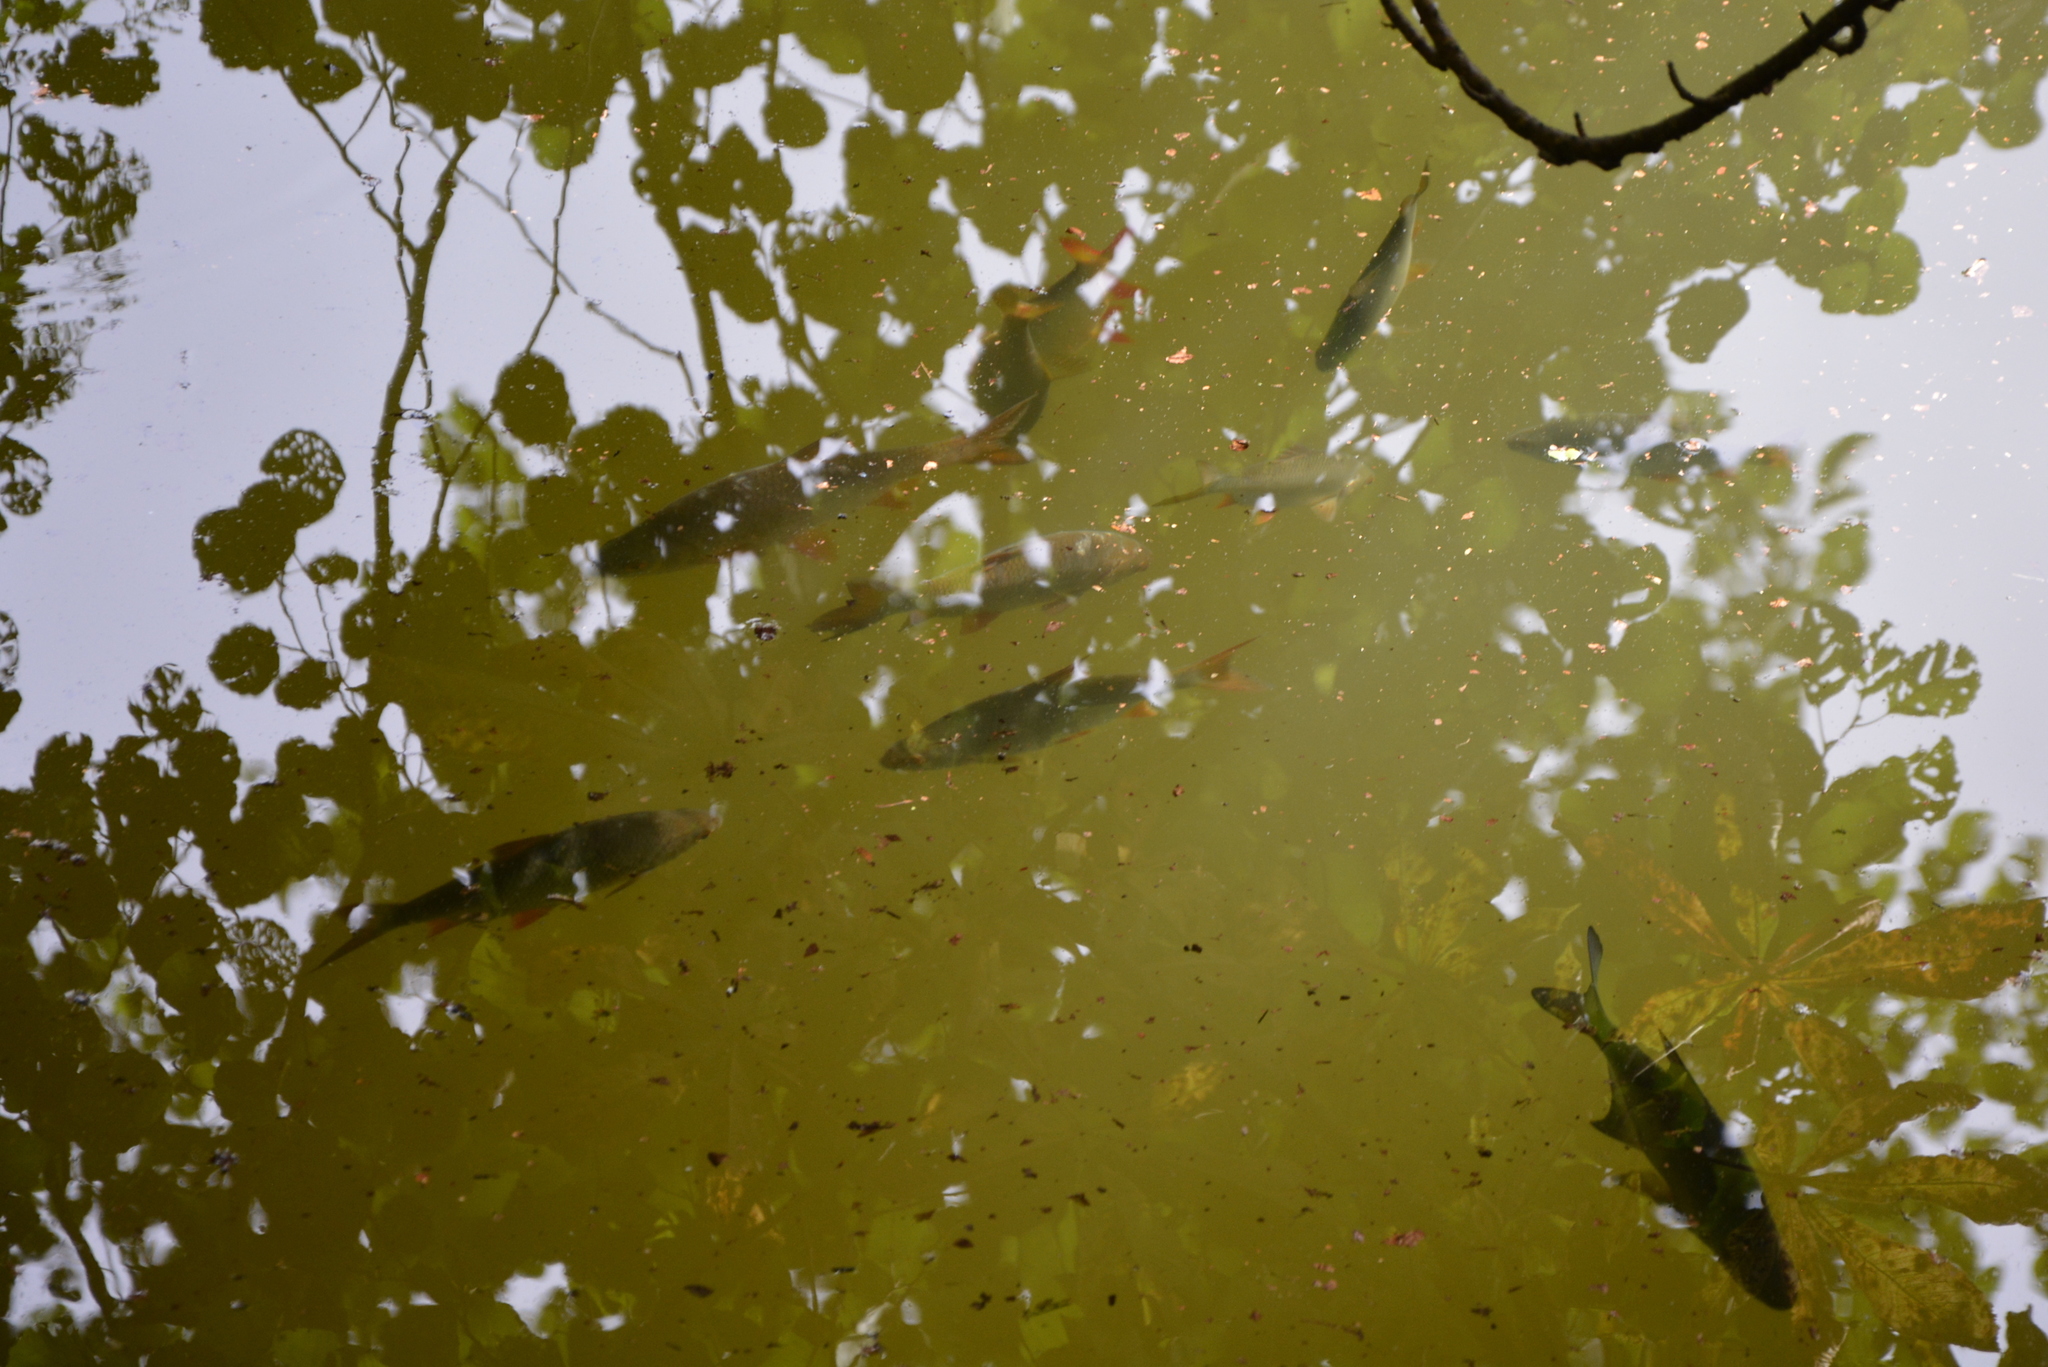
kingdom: Animalia
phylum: Chordata
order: Cypriniformes
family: Cyprinidae
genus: Scardinius
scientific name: Scardinius erythrophthalmus
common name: Rudd
